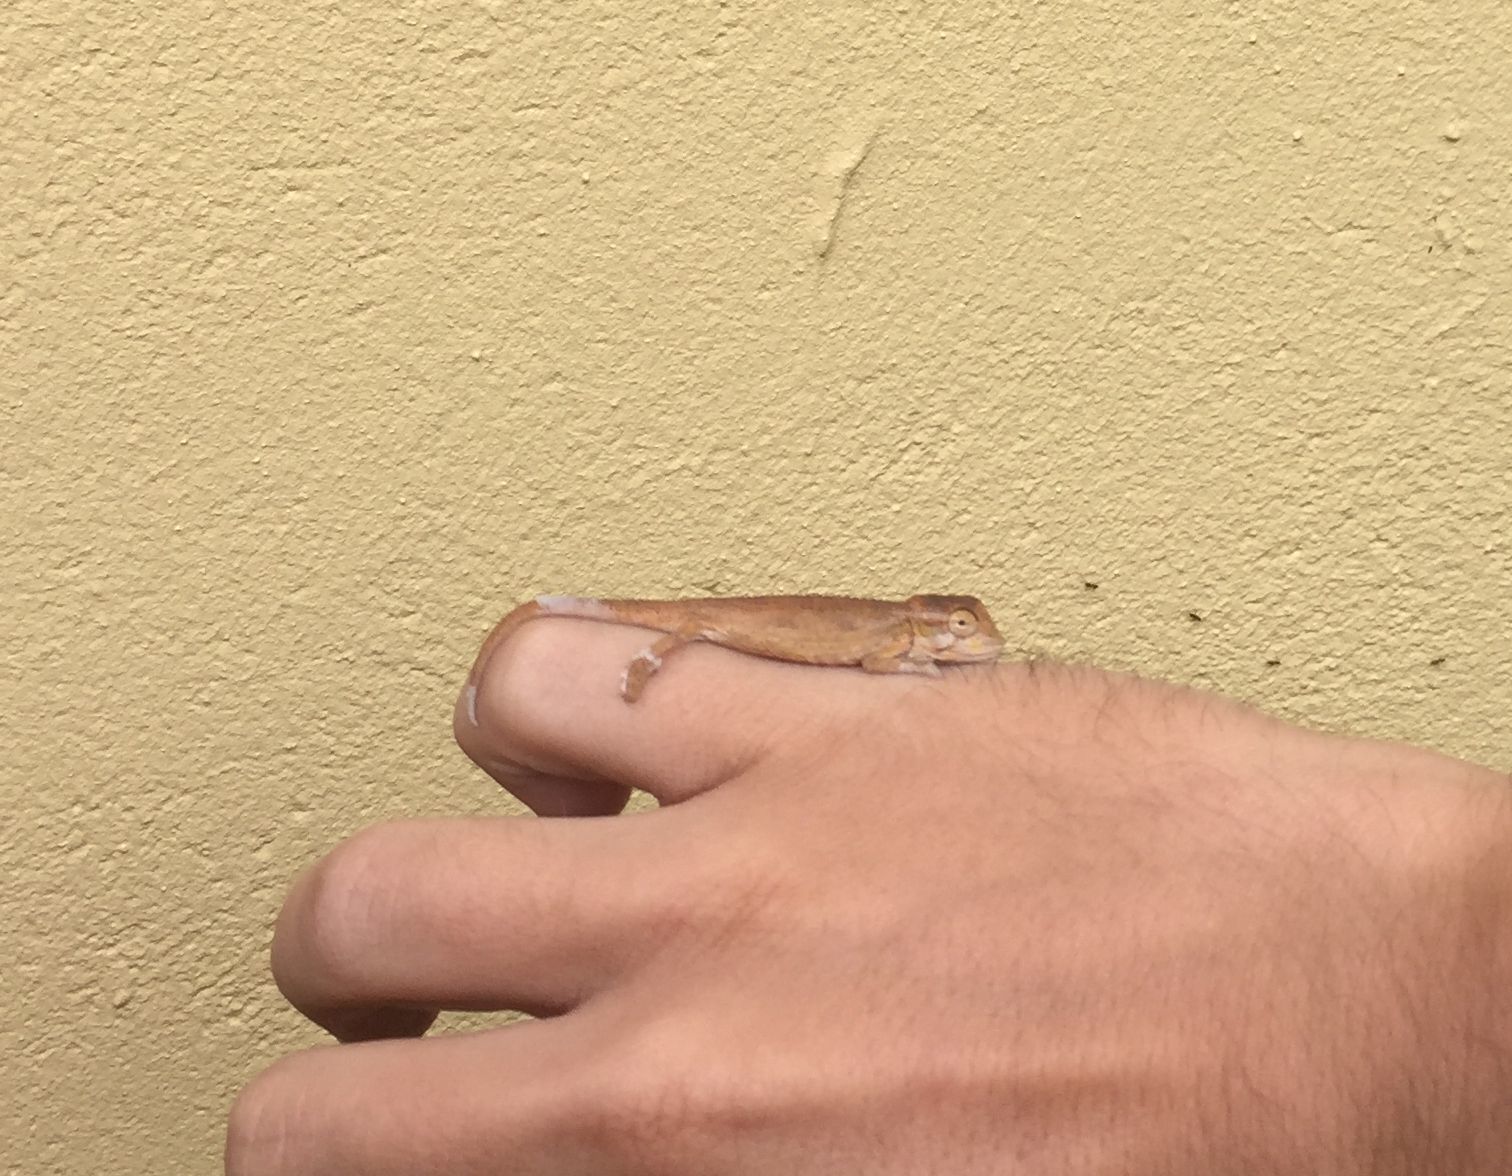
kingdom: Animalia
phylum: Chordata
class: Squamata
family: Chamaeleonidae
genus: Bradypodion
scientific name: Bradypodion pumilum
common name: Cape dwarf chameleon
